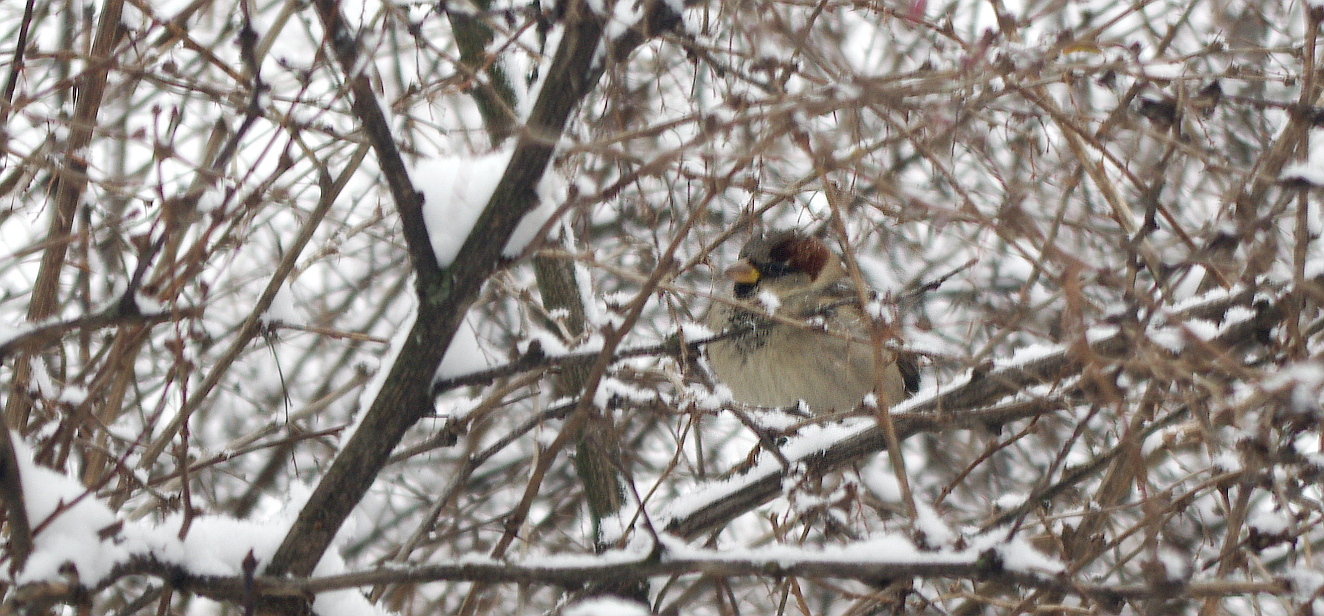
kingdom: Animalia
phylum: Chordata
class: Aves
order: Passeriformes
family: Passeridae
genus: Passer
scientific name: Passer domesticus
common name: House sparrow
